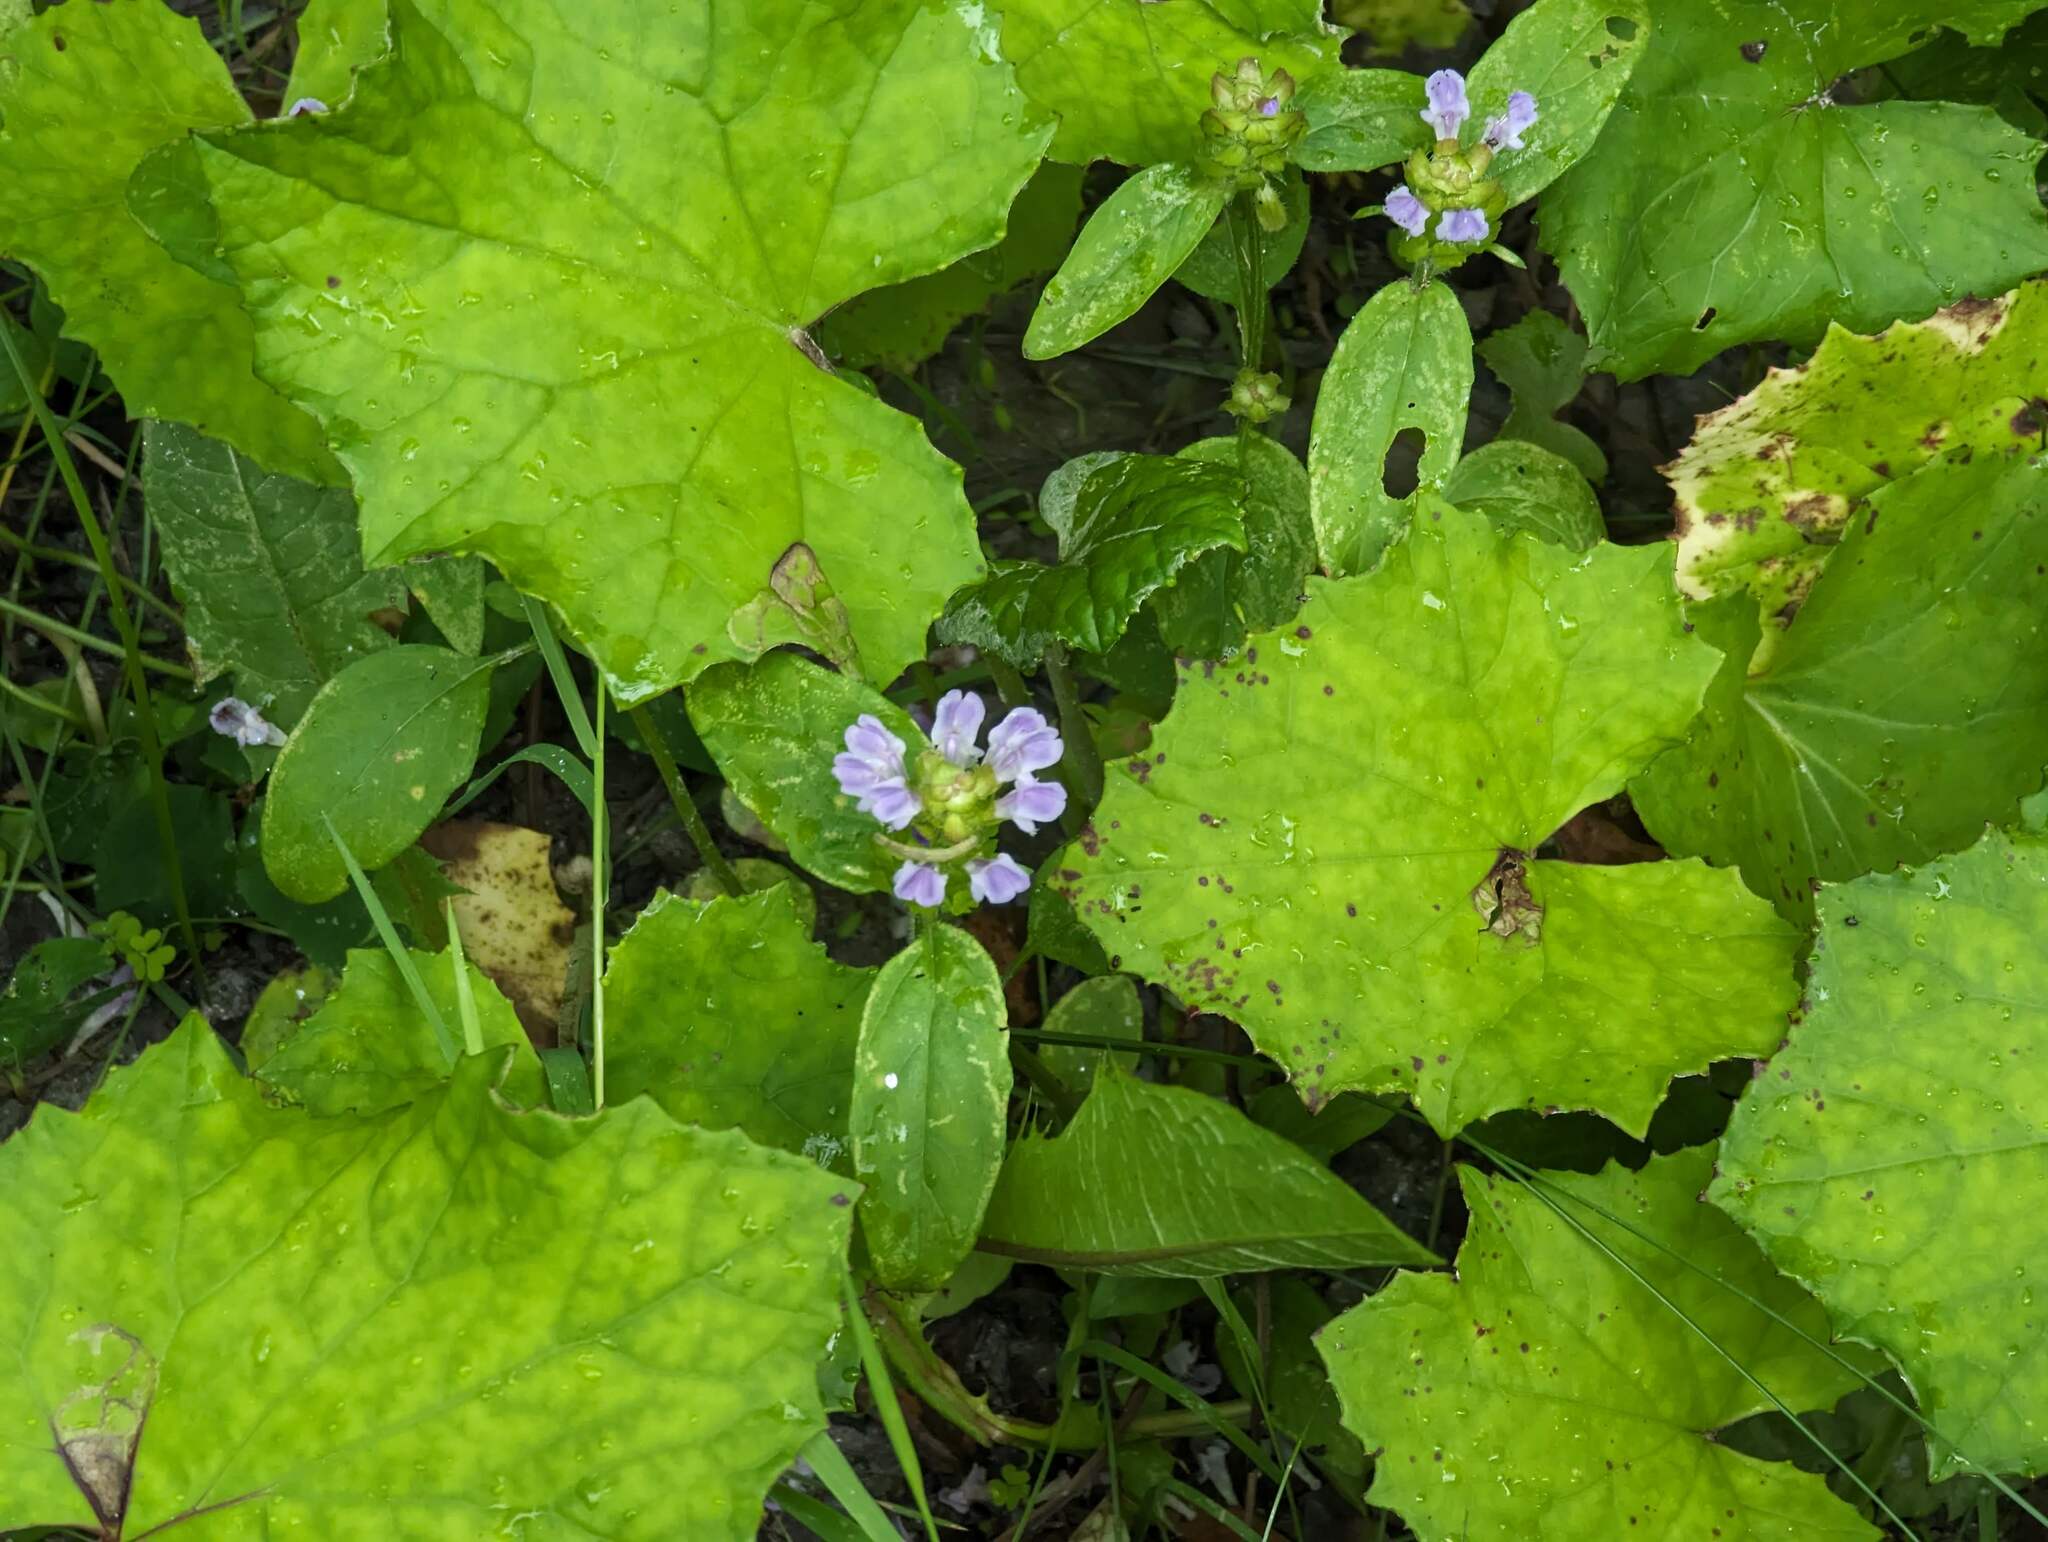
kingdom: Plantae
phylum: Tracheophyta
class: Magnoliopsida
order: Lamiales
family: Lamiaceae
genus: Prunella
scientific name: Prunella vulgaris
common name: Heal-all
